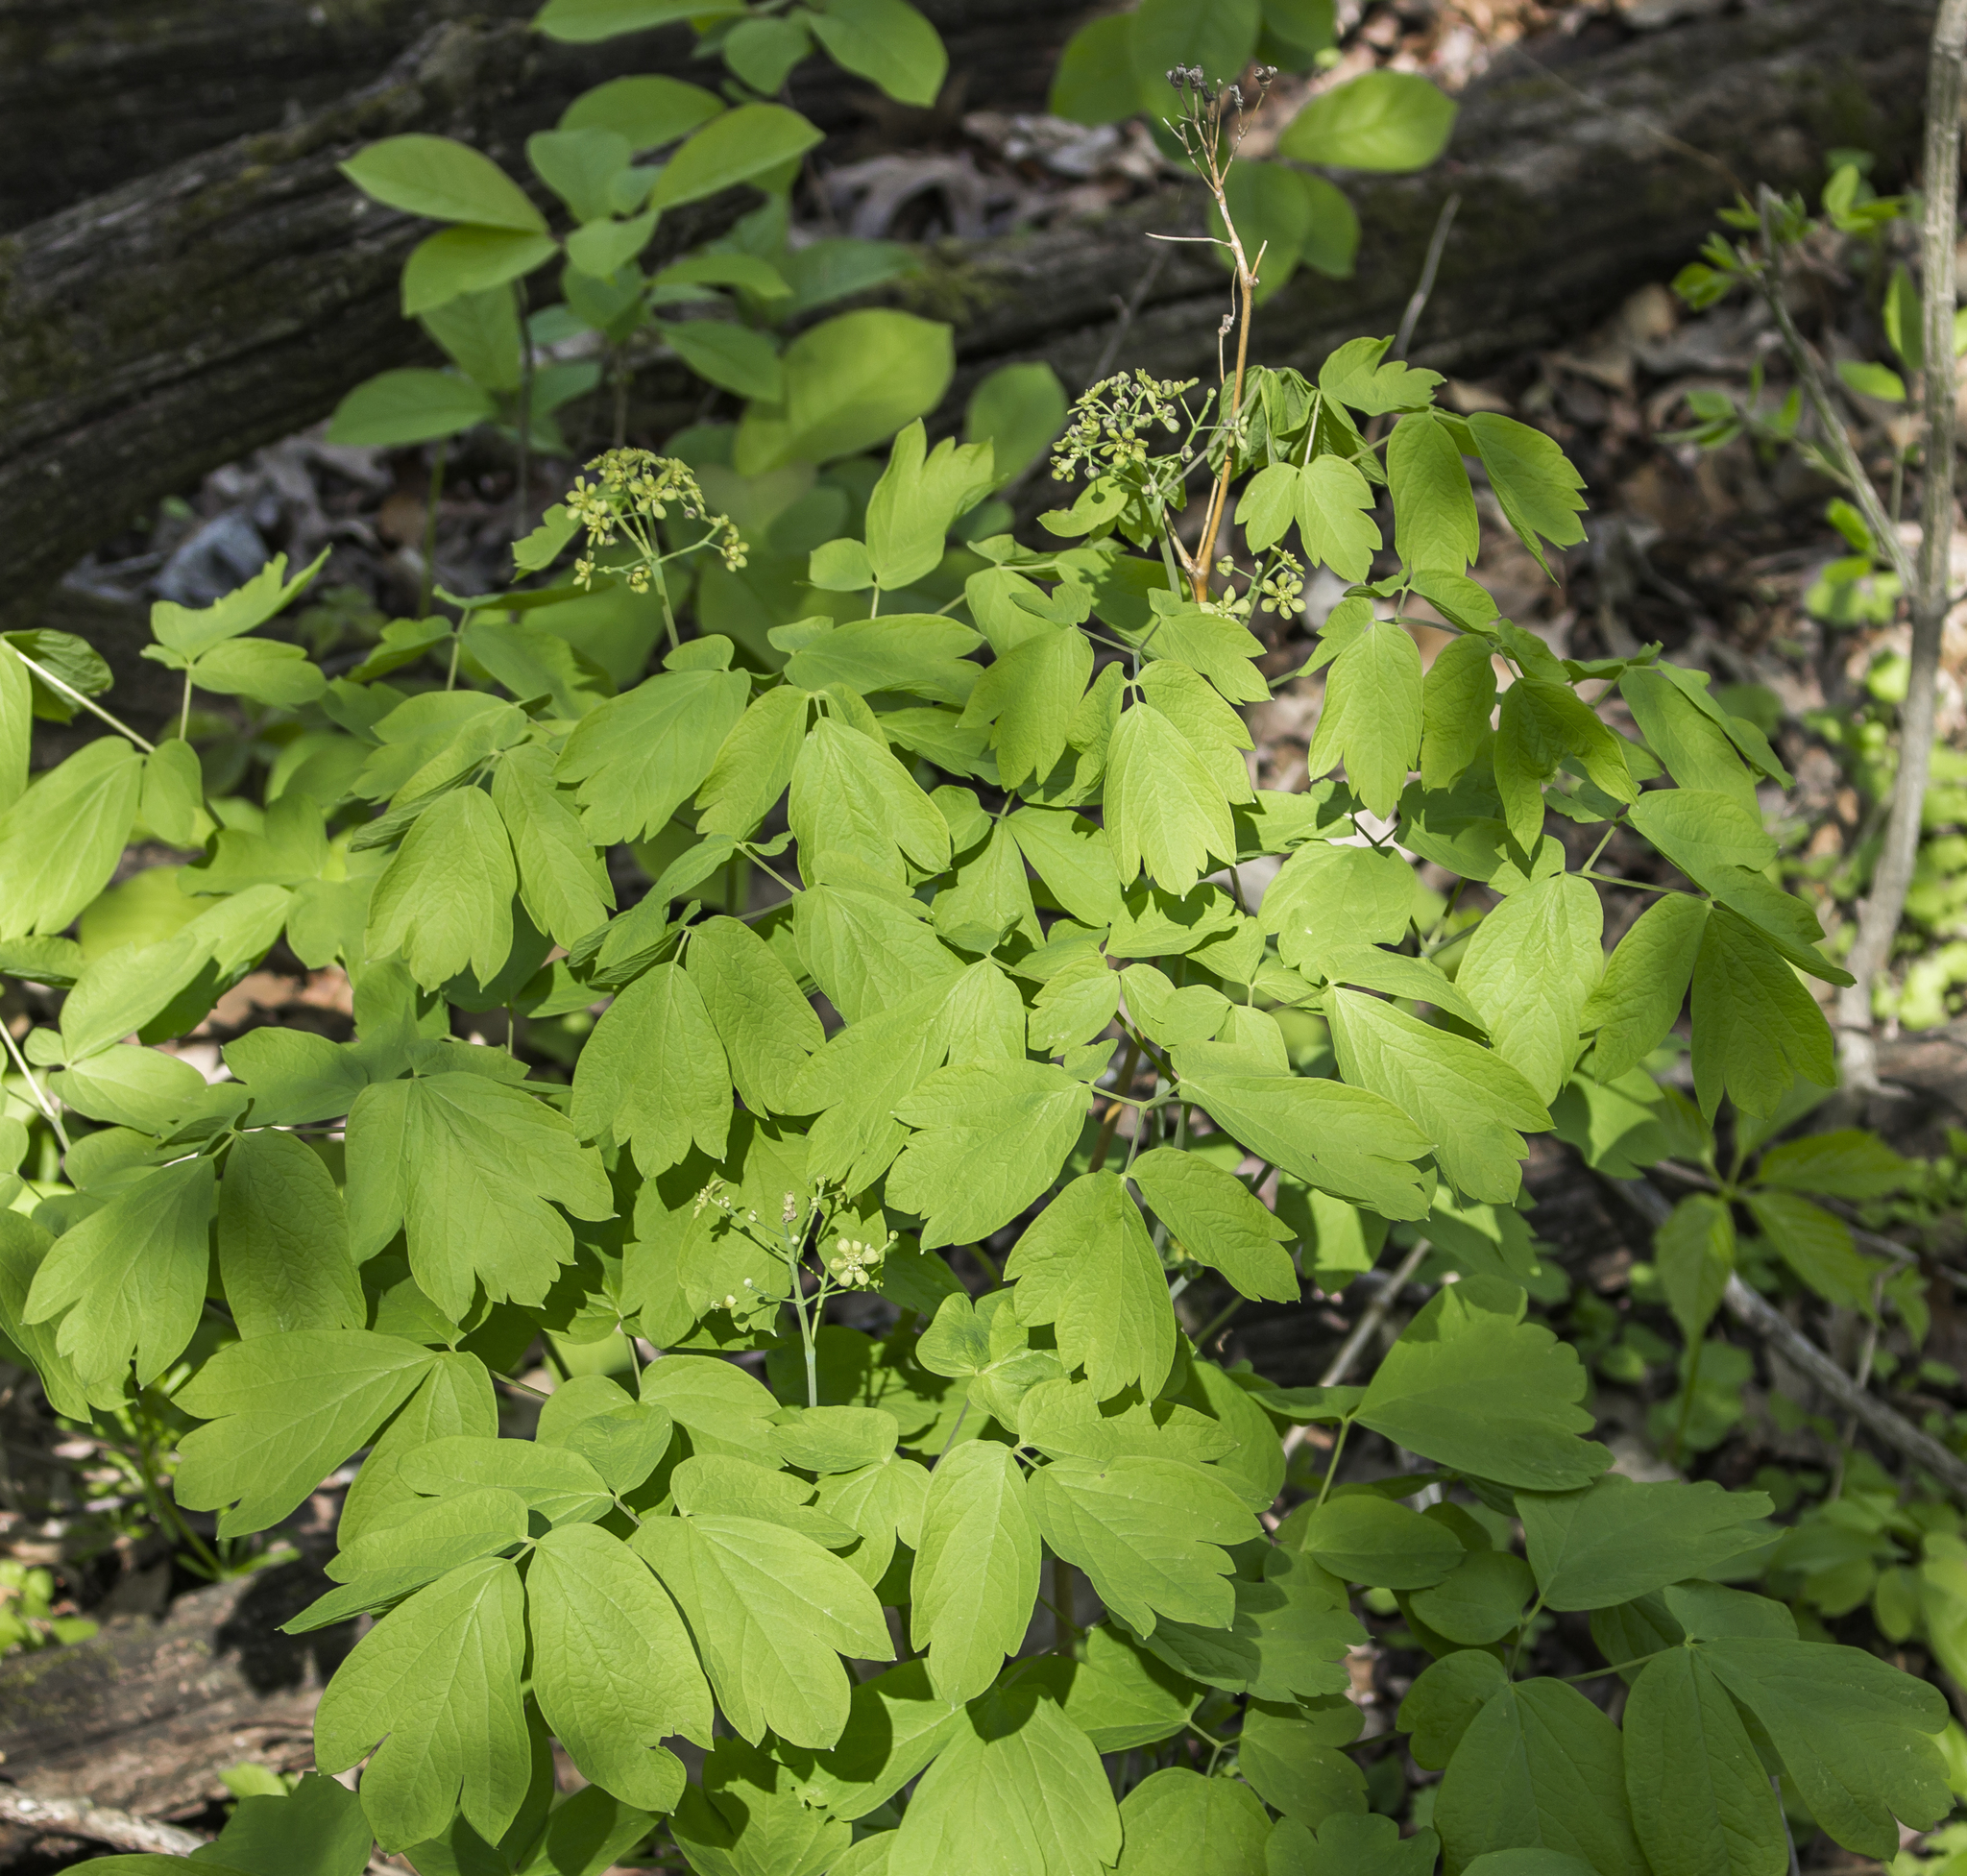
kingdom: Plantae
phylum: Tracheophyta
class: Magnoliopsida
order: Ranunculales
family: Berberidaceae
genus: Caulophyllum
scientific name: Caulophyllum thalictroides
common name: Blue cohosh
